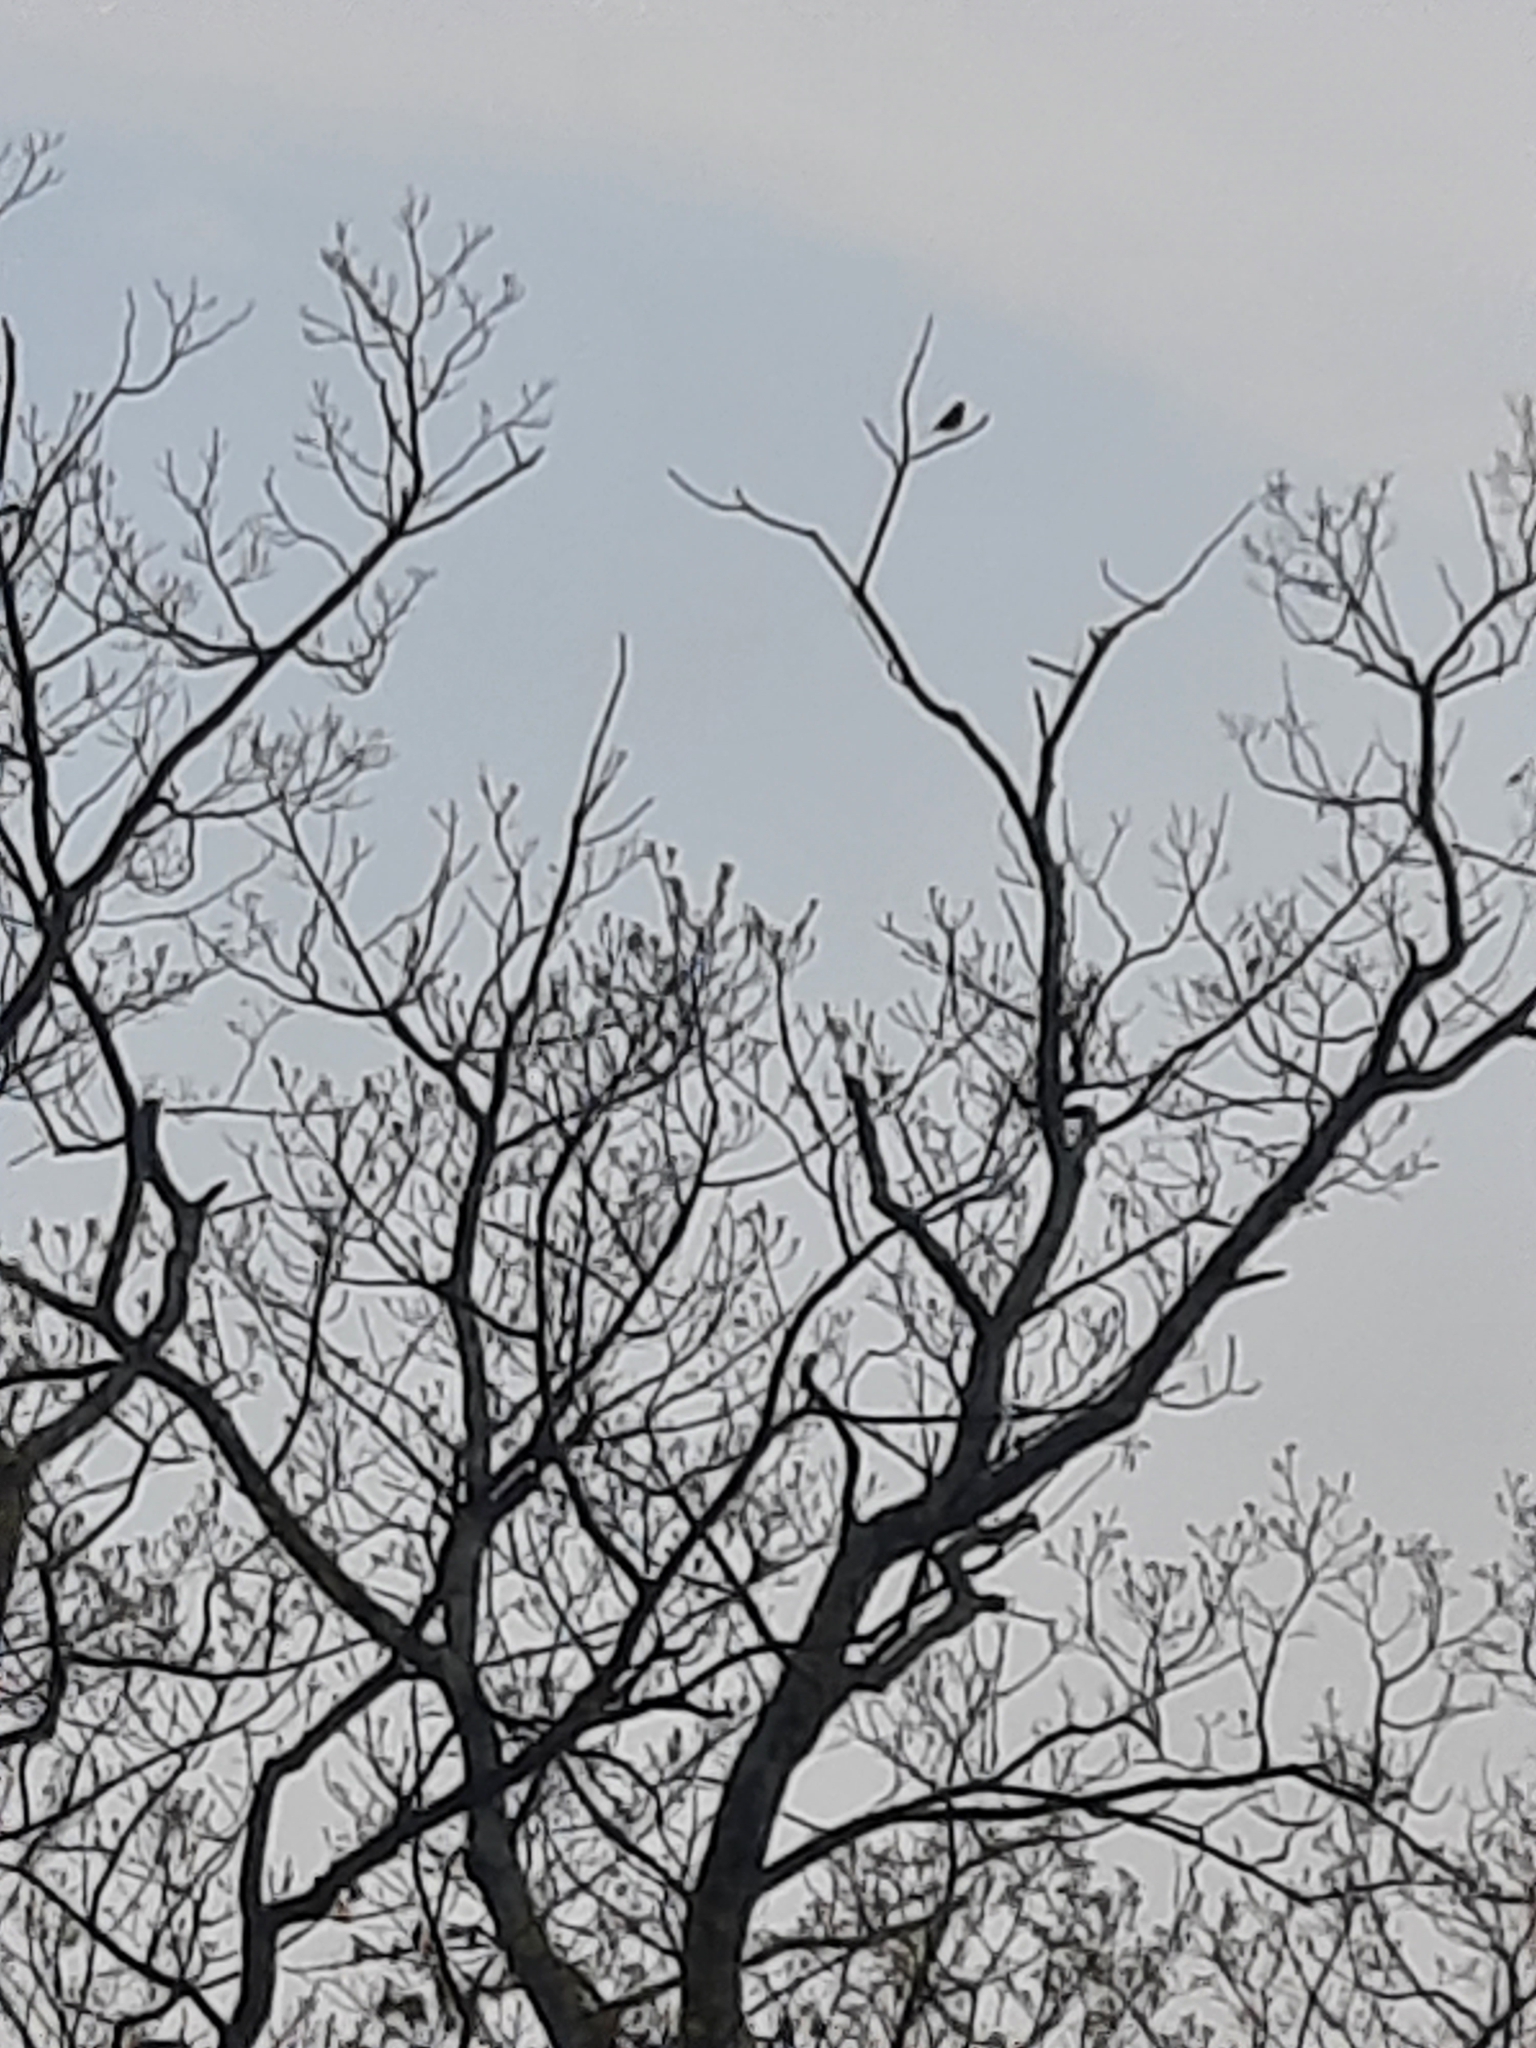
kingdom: Animalia
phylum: Chordata
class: Aves
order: Passeriformes
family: Turdidae
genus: Turdus
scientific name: Turdus migratorius
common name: American robin
